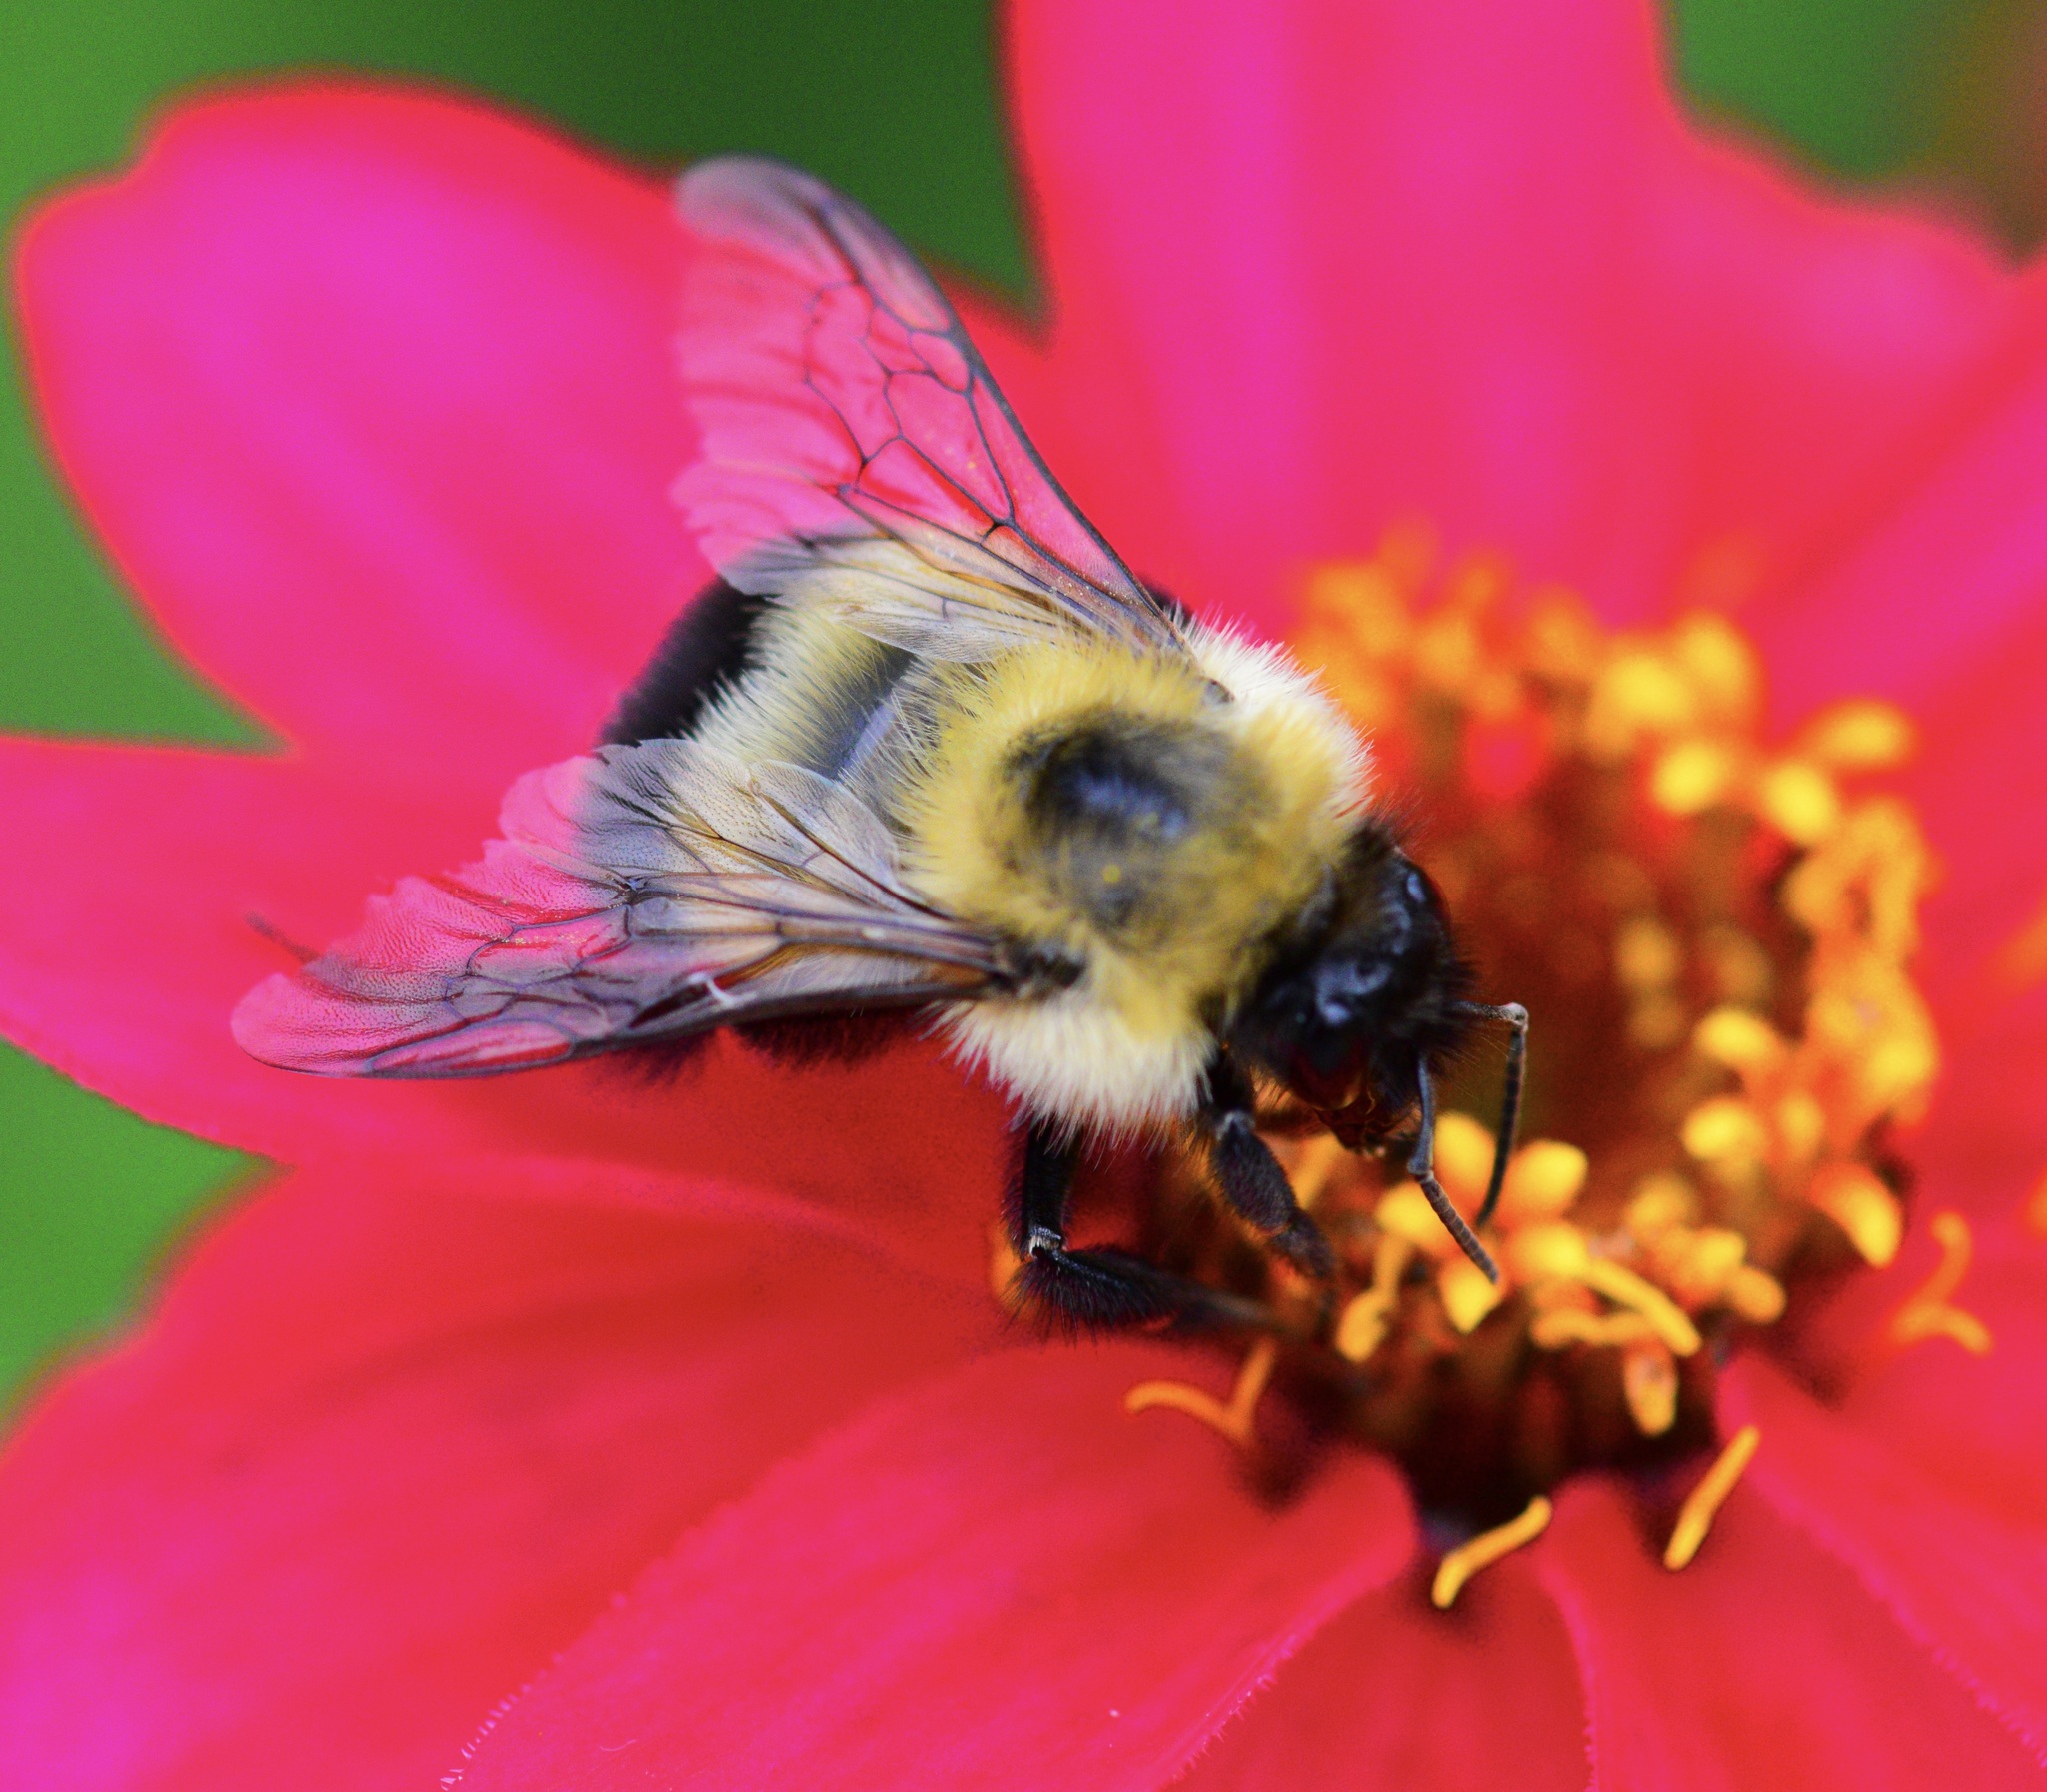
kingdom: Animalia
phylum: Arthropoda
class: Insecta
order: Hymenoptera
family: Apidae
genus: Pyrobombus
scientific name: Pyrobombus
